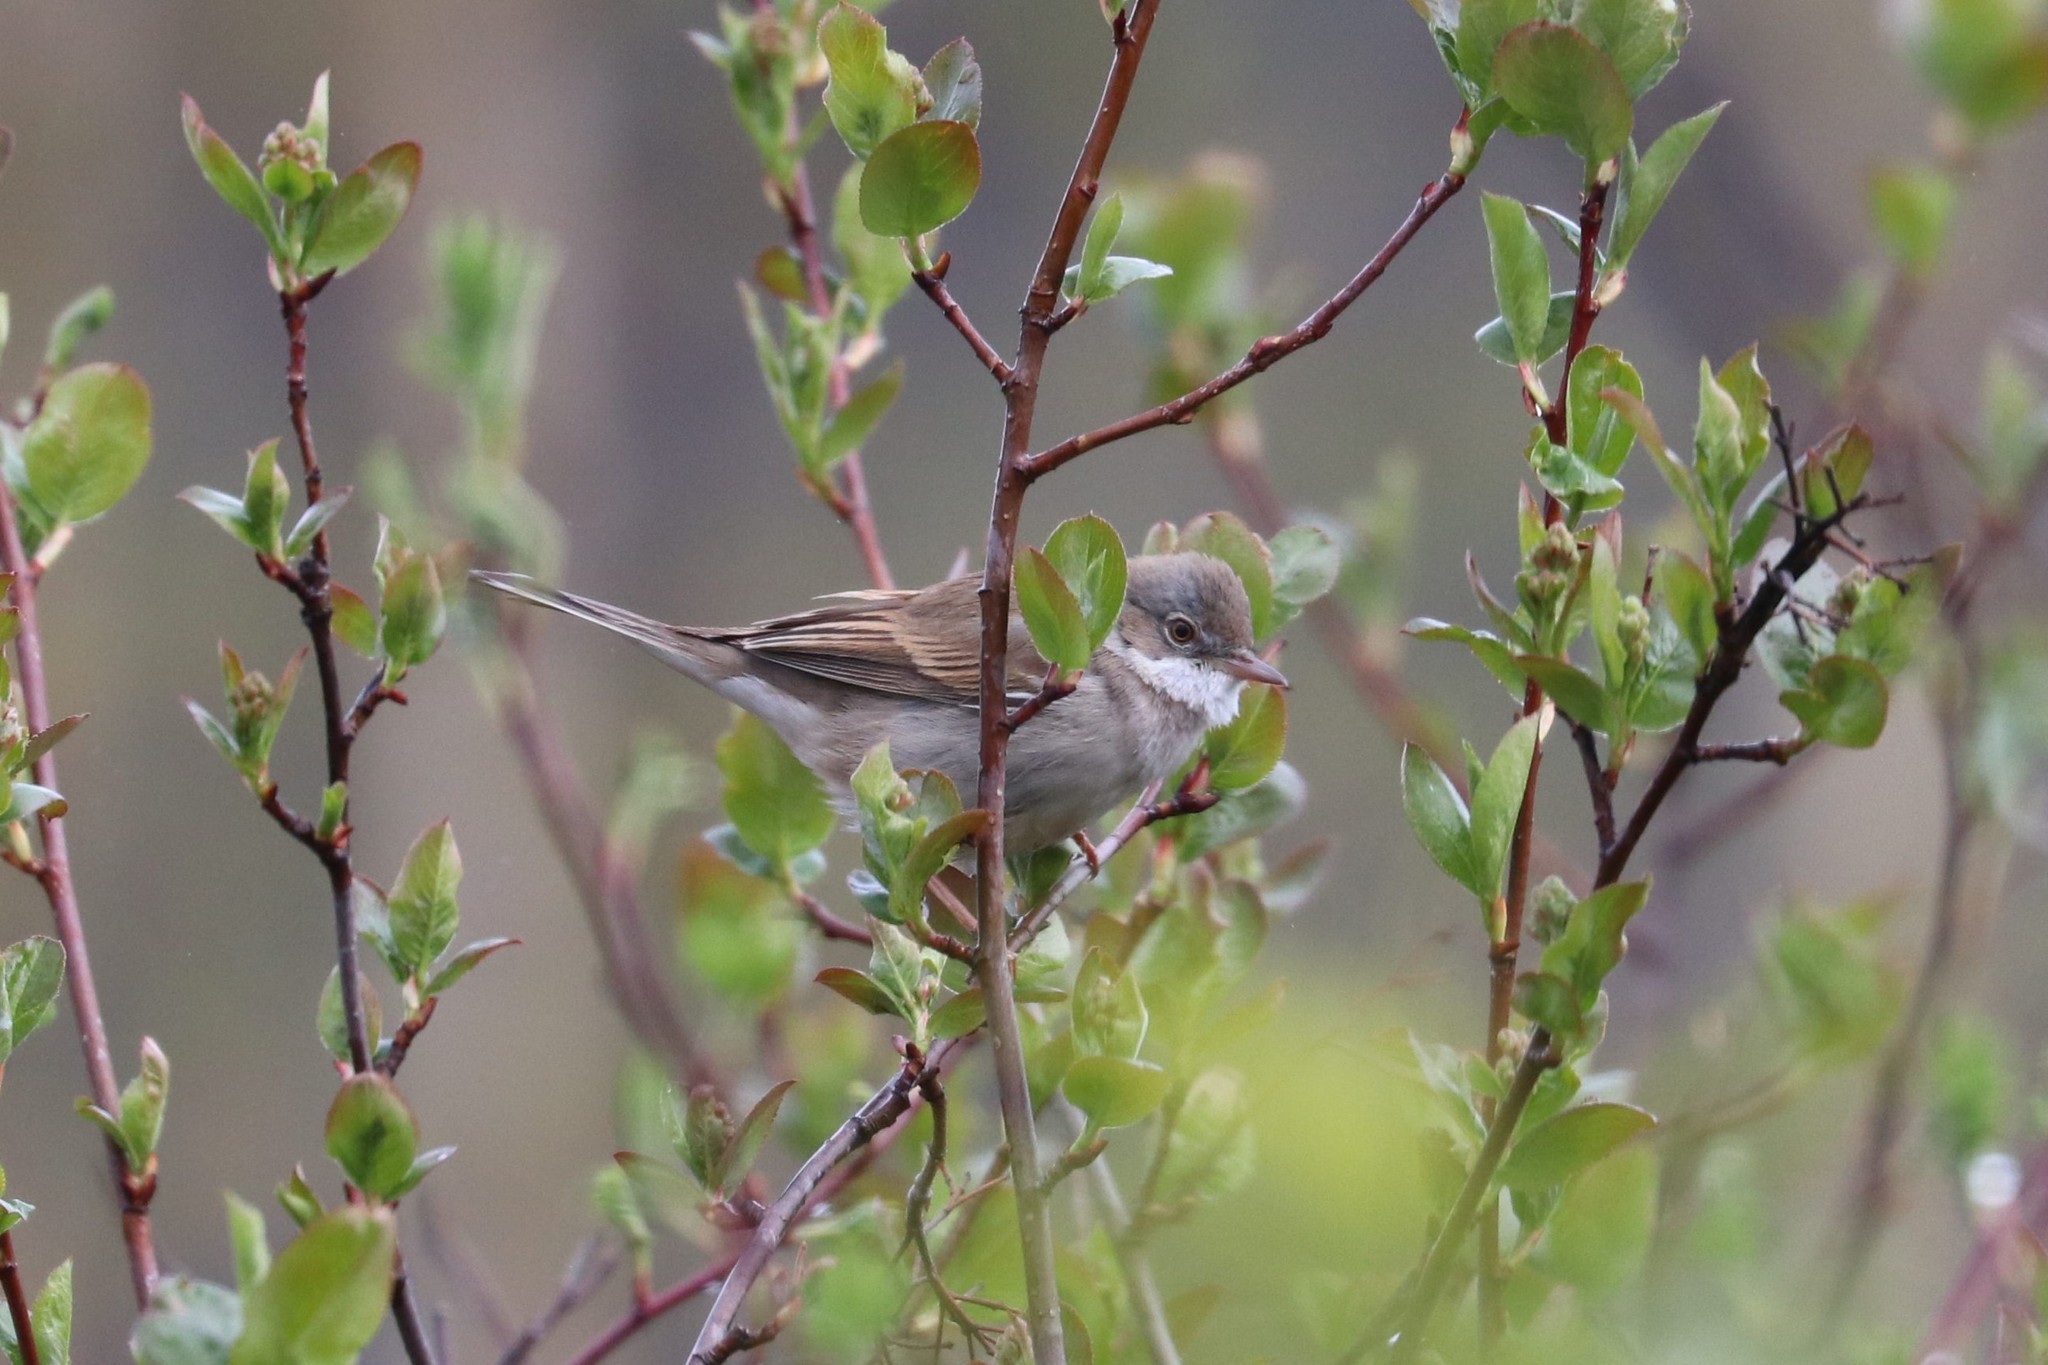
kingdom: Animalia
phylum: Chordata
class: Aves
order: Passeriformes
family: Sylviidae
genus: Sylvia
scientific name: Sylvia communis
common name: Common whitethroat
